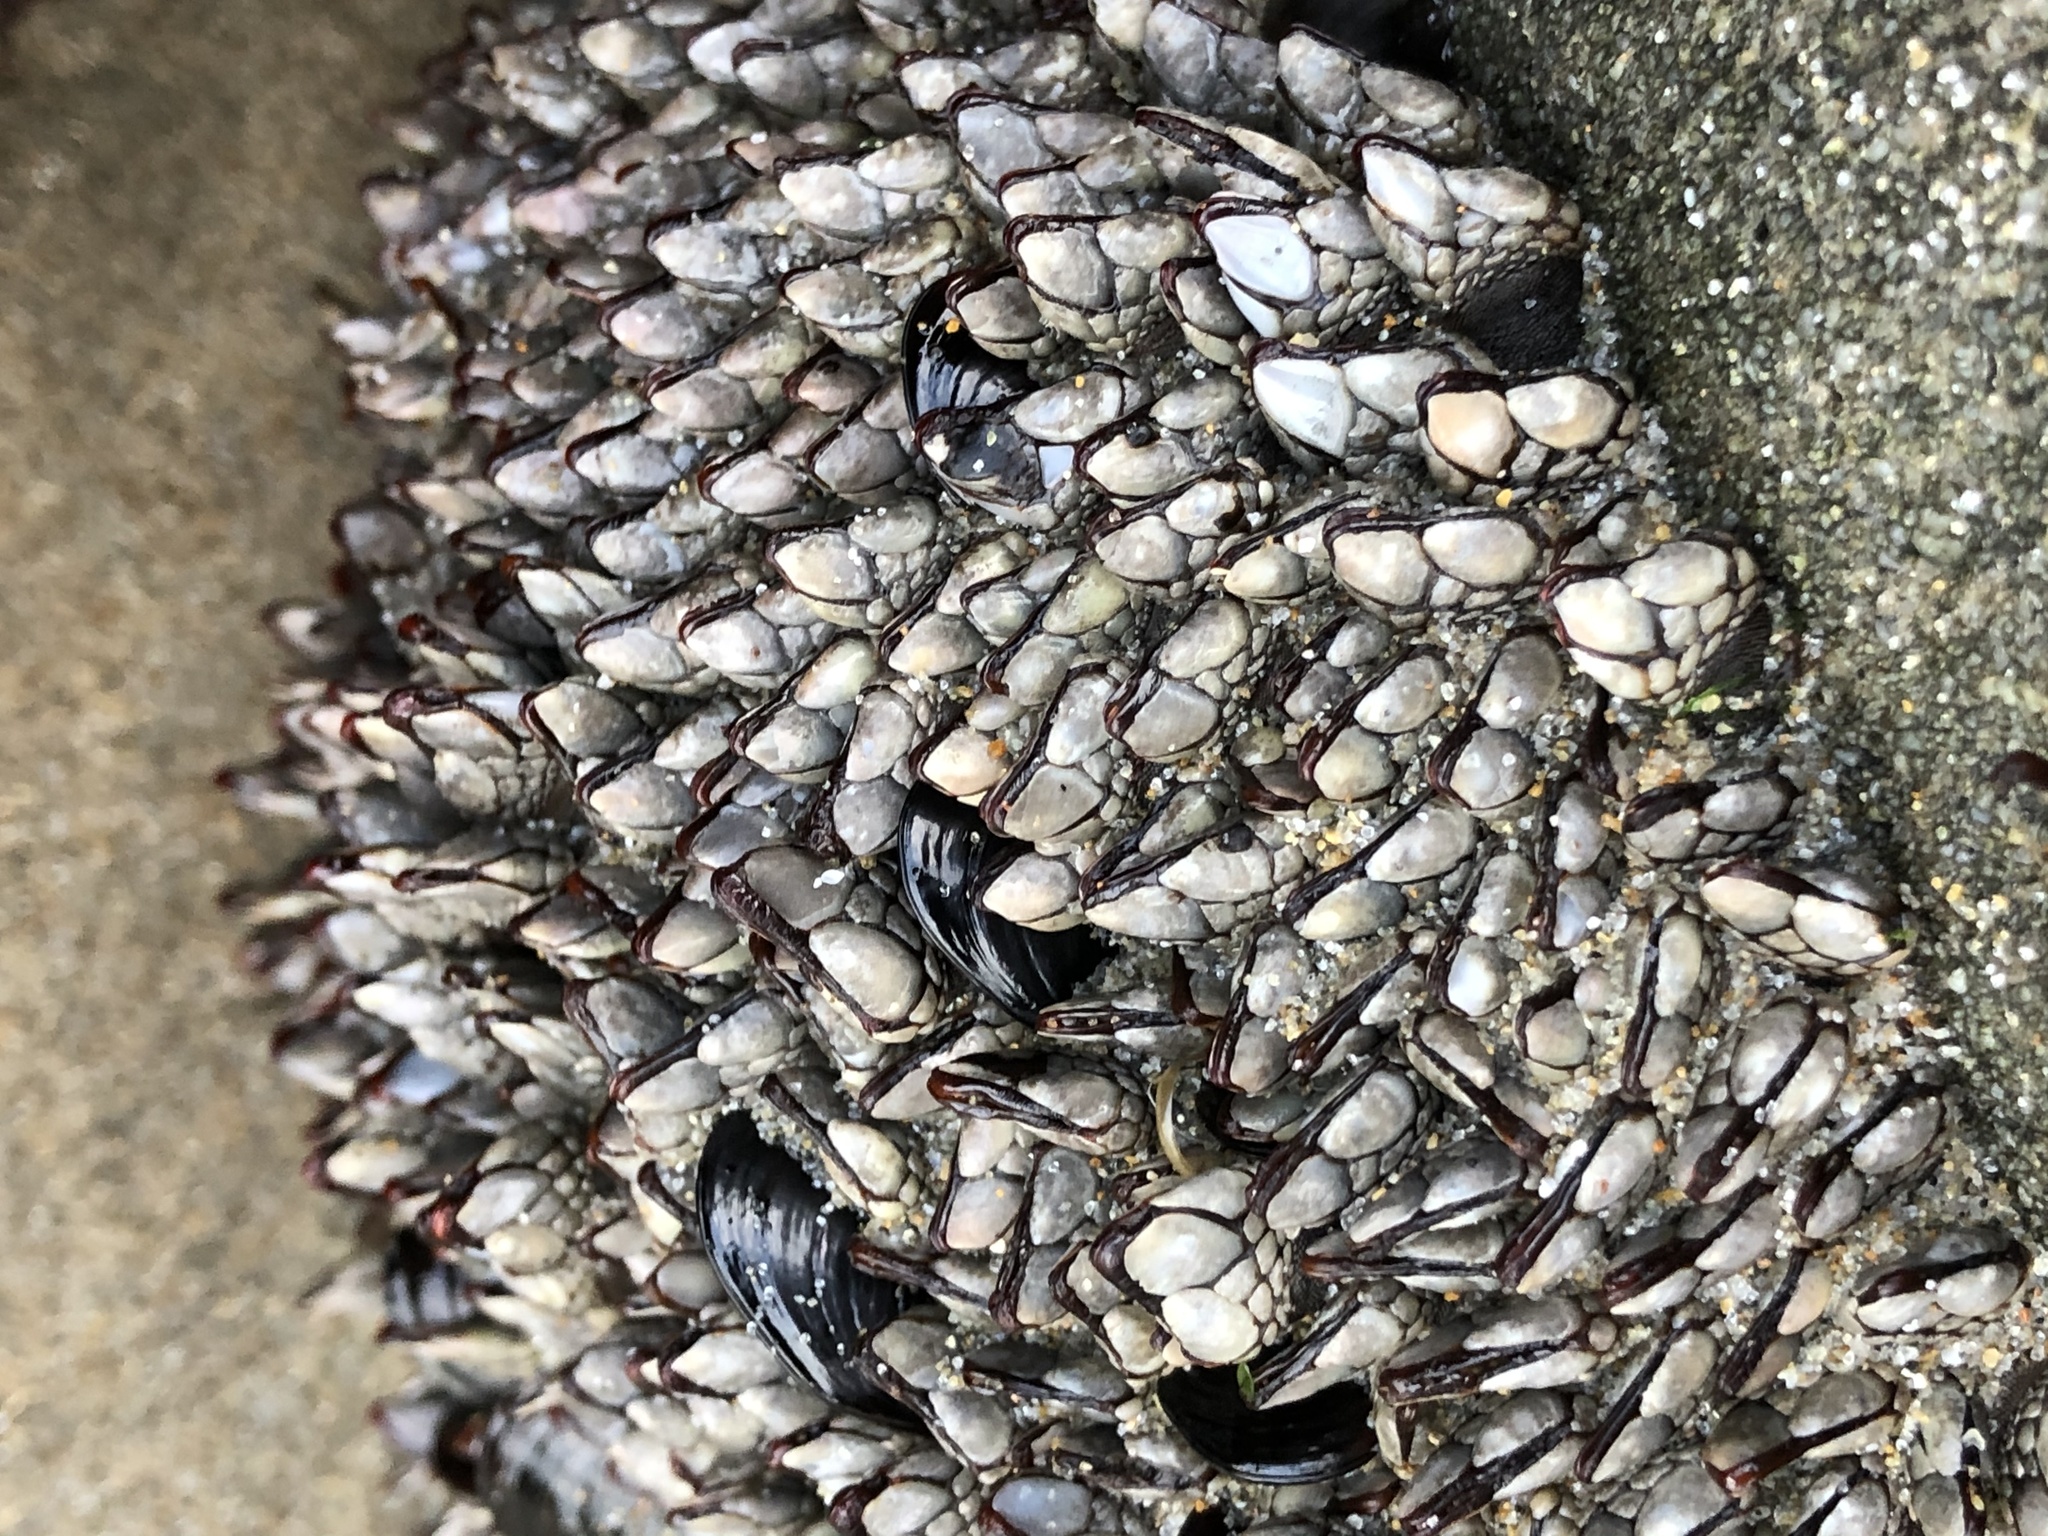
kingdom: Animalia
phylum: Arthropoda
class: Maxillopoda
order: Pedunculata
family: Pollicipedidae
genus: Pollicipes
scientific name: Pollicipes polymerus
